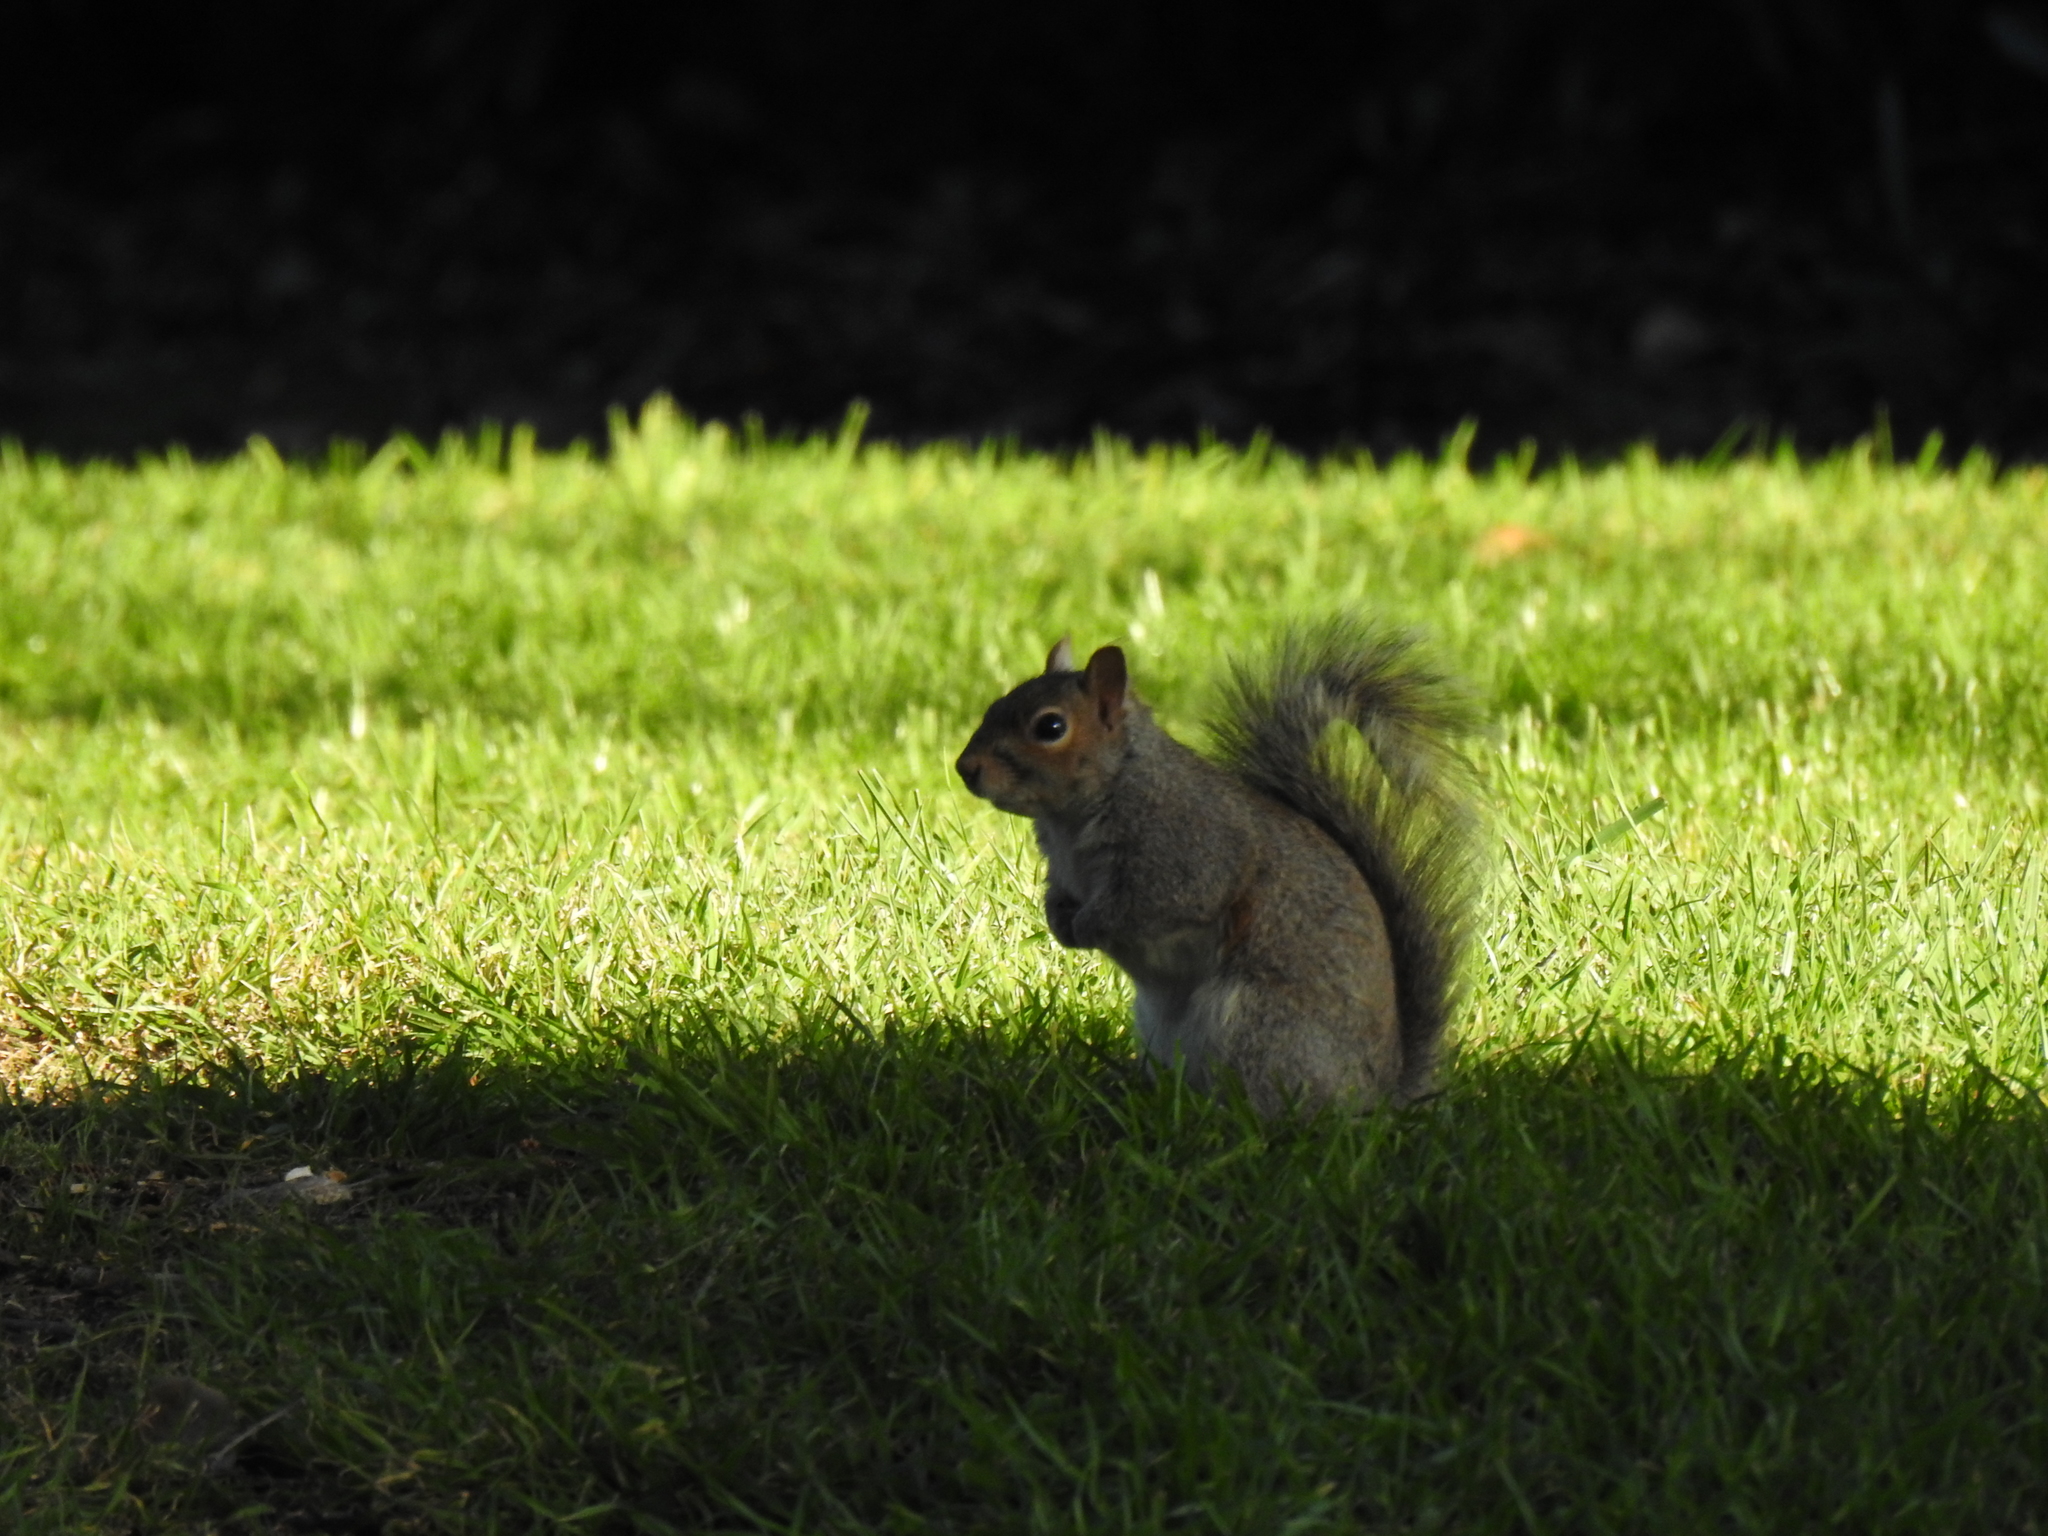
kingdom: Animalia
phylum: Chordata
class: Mammalia
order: Rodentia
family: Sciuridae
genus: Sciurus
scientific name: Sciurus carolinensis
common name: Eastern gray squirrel
